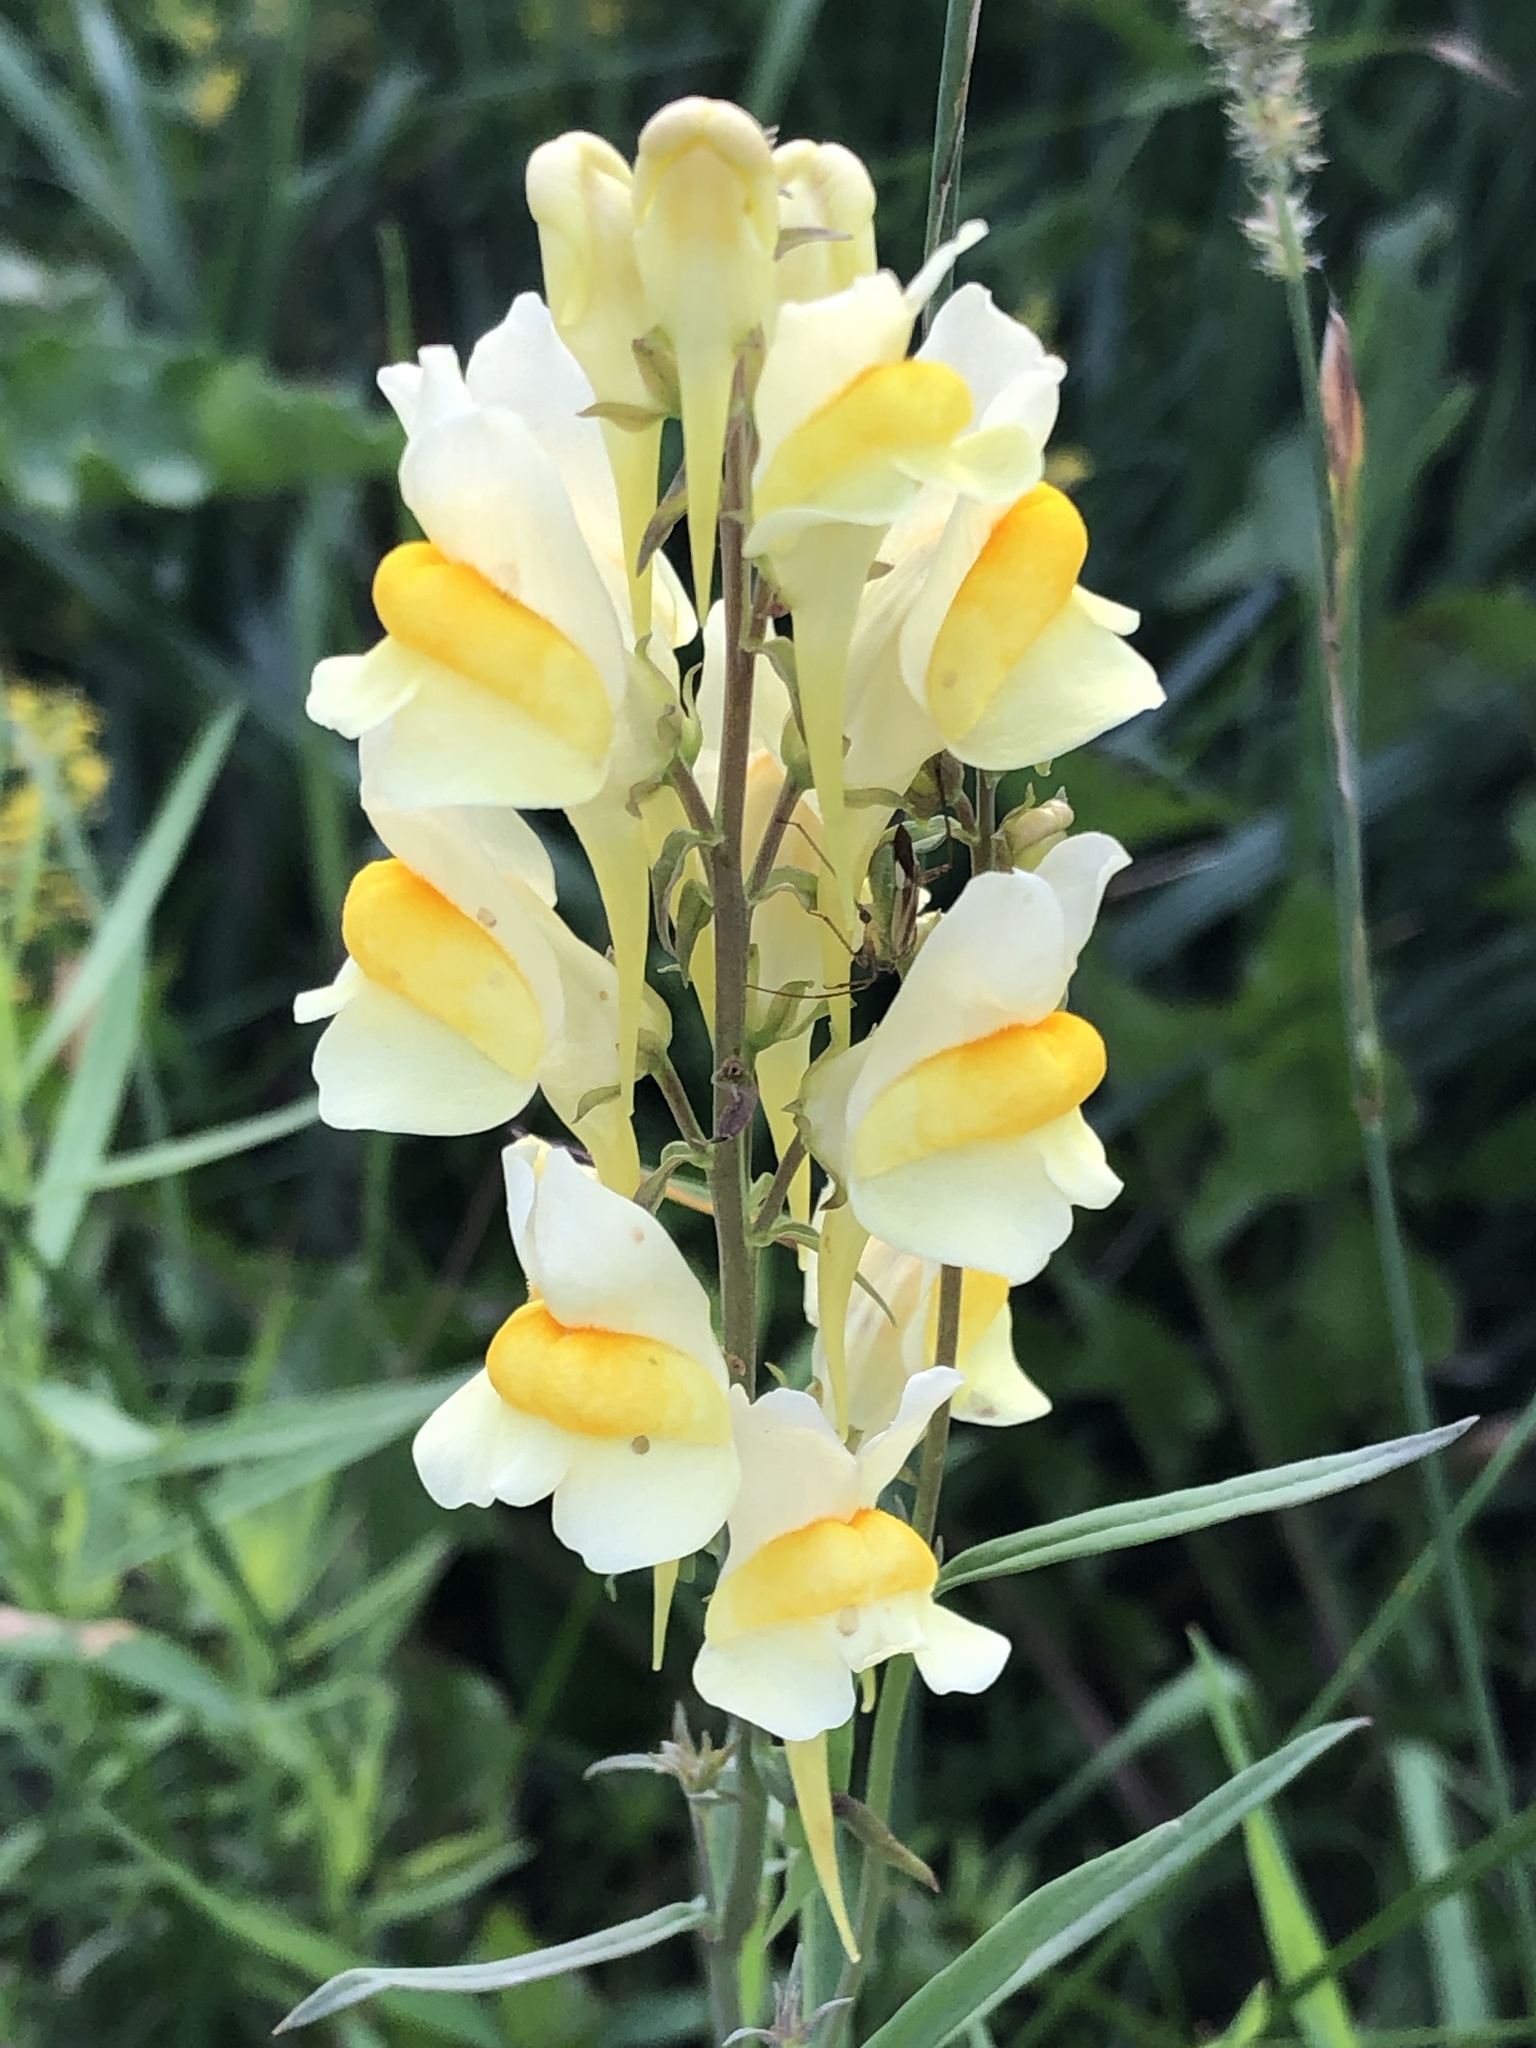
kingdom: Plantae
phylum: Tracheophyta
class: Magnoliopsida
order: Lamiales
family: Plantaginaceae
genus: Linaria
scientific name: Linaria vulgaris
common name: Butter and eggs
